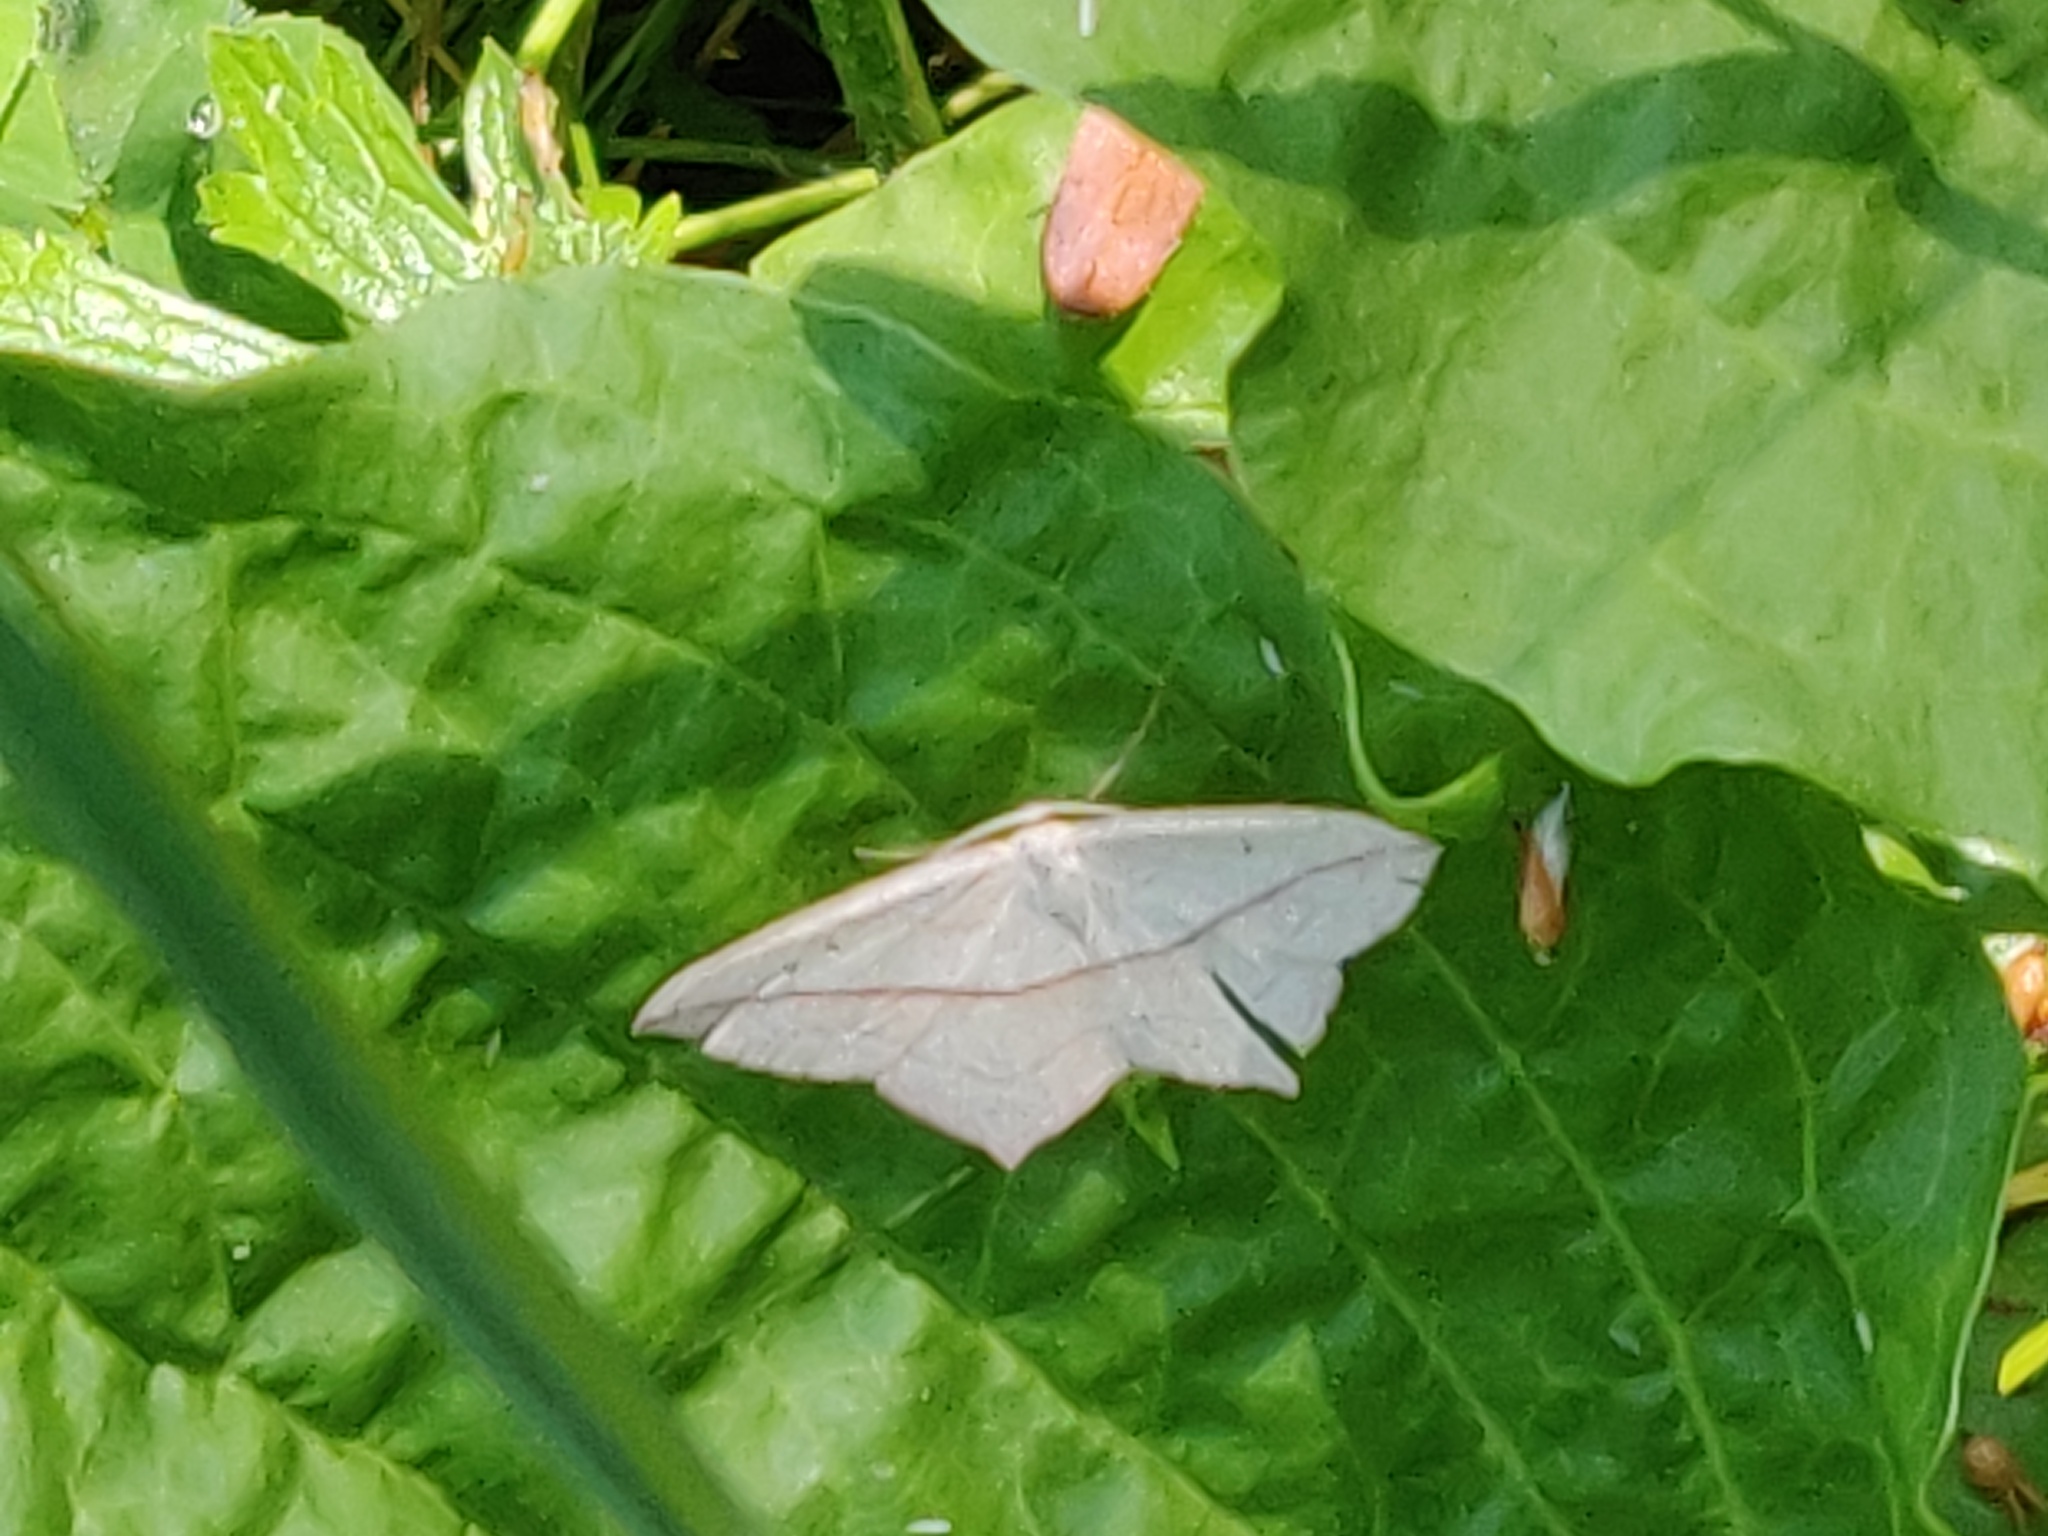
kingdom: Animalia
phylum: Arthropoda
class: Insecta
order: Lepidoptera
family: Geometridae
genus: Timandra
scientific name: Timandra comae
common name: Blood-vein
